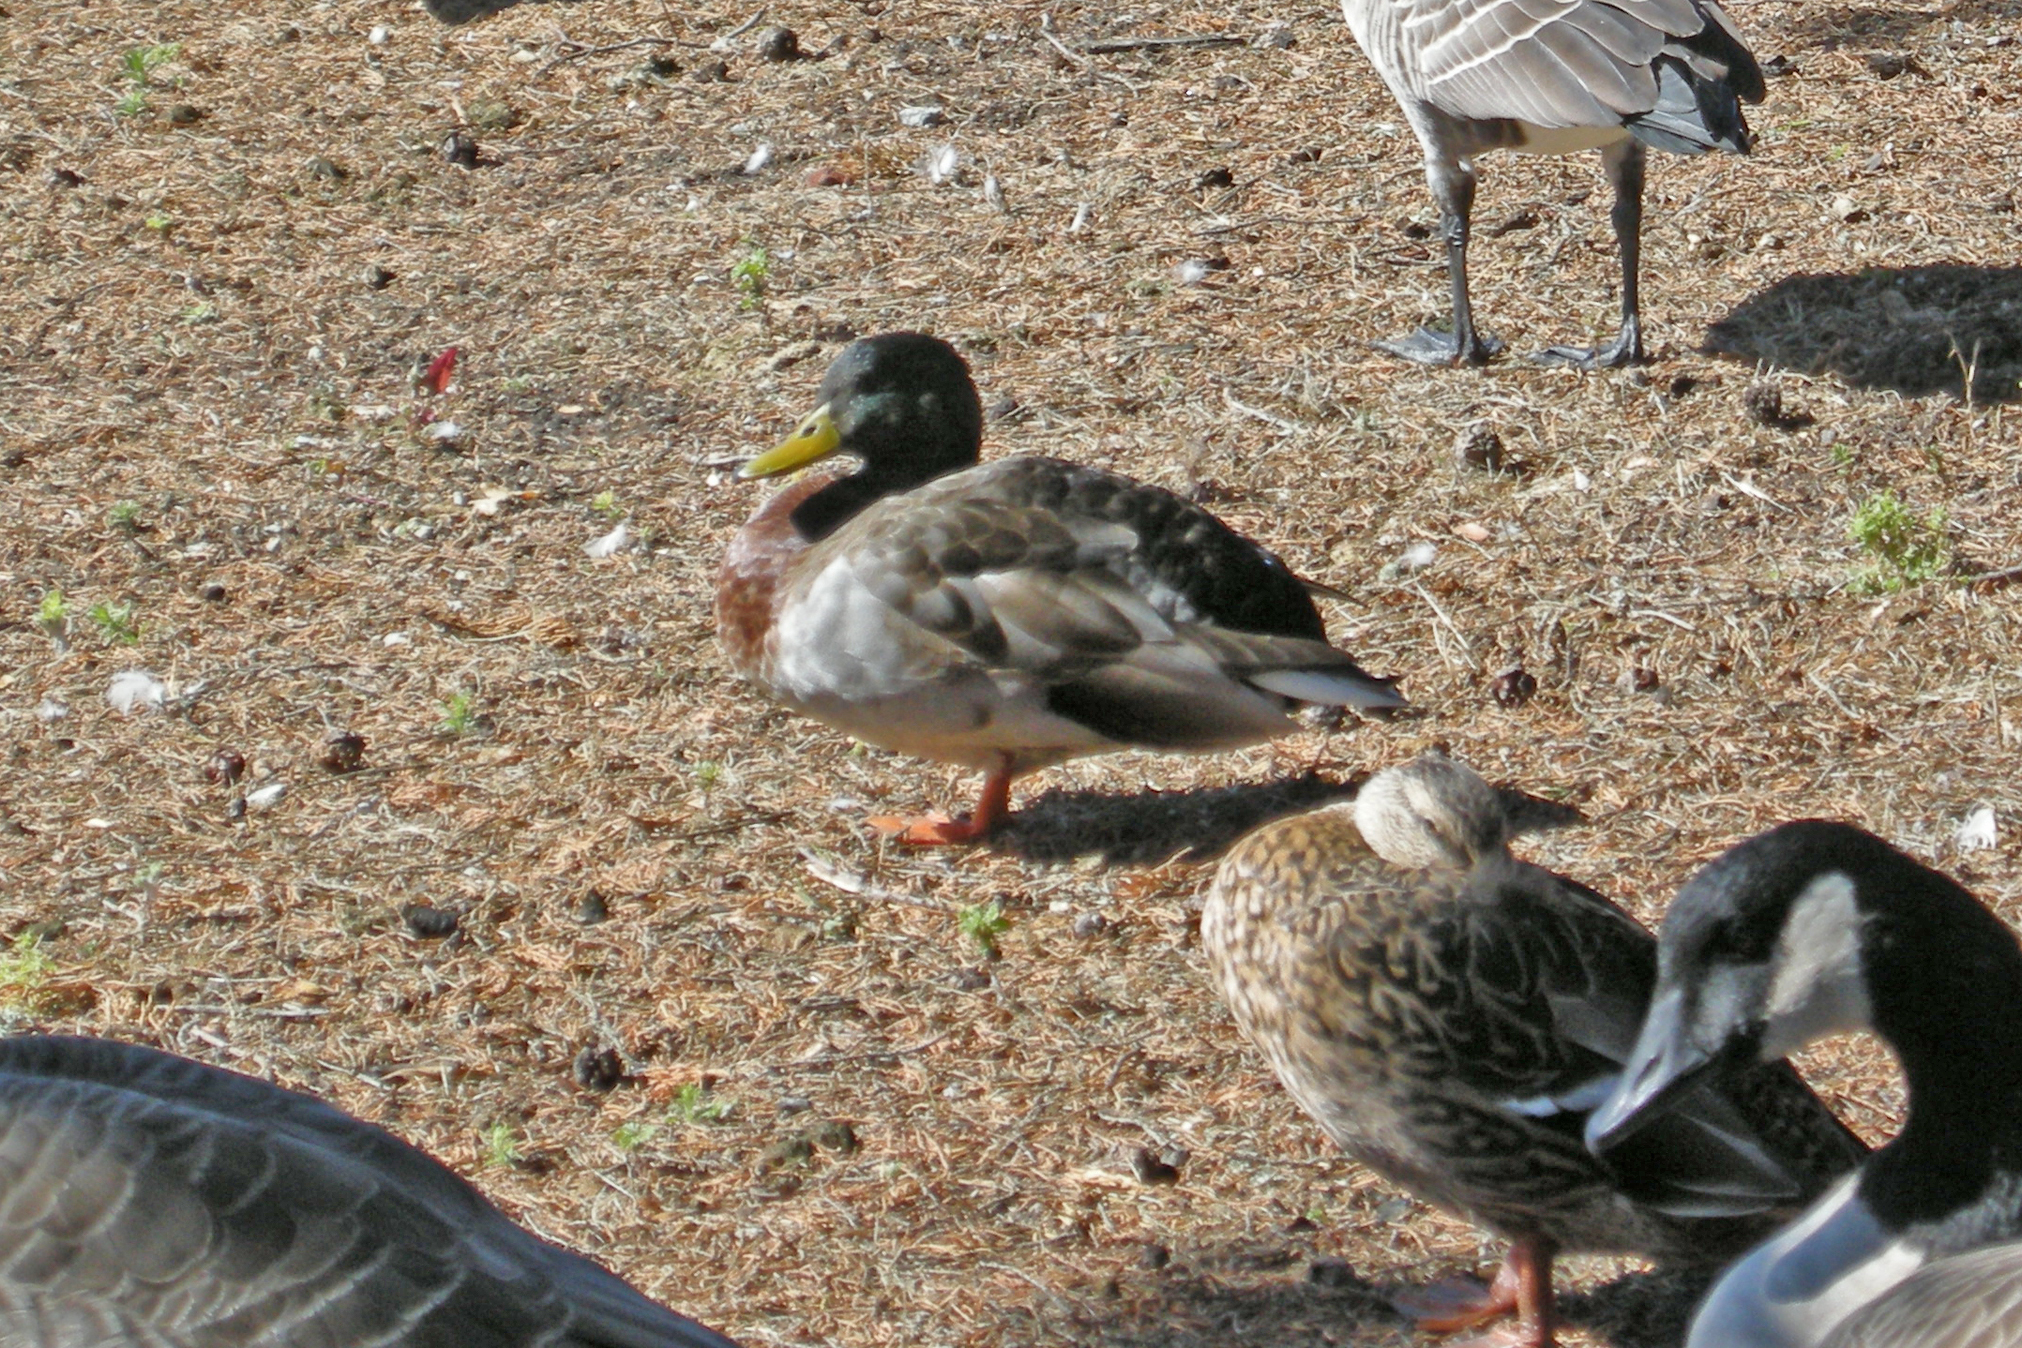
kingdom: Animalia
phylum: Chordata
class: Aves
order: Anseriformes
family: Anatidae
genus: Anas
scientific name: Anas platyrhynchos
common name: Mallard
